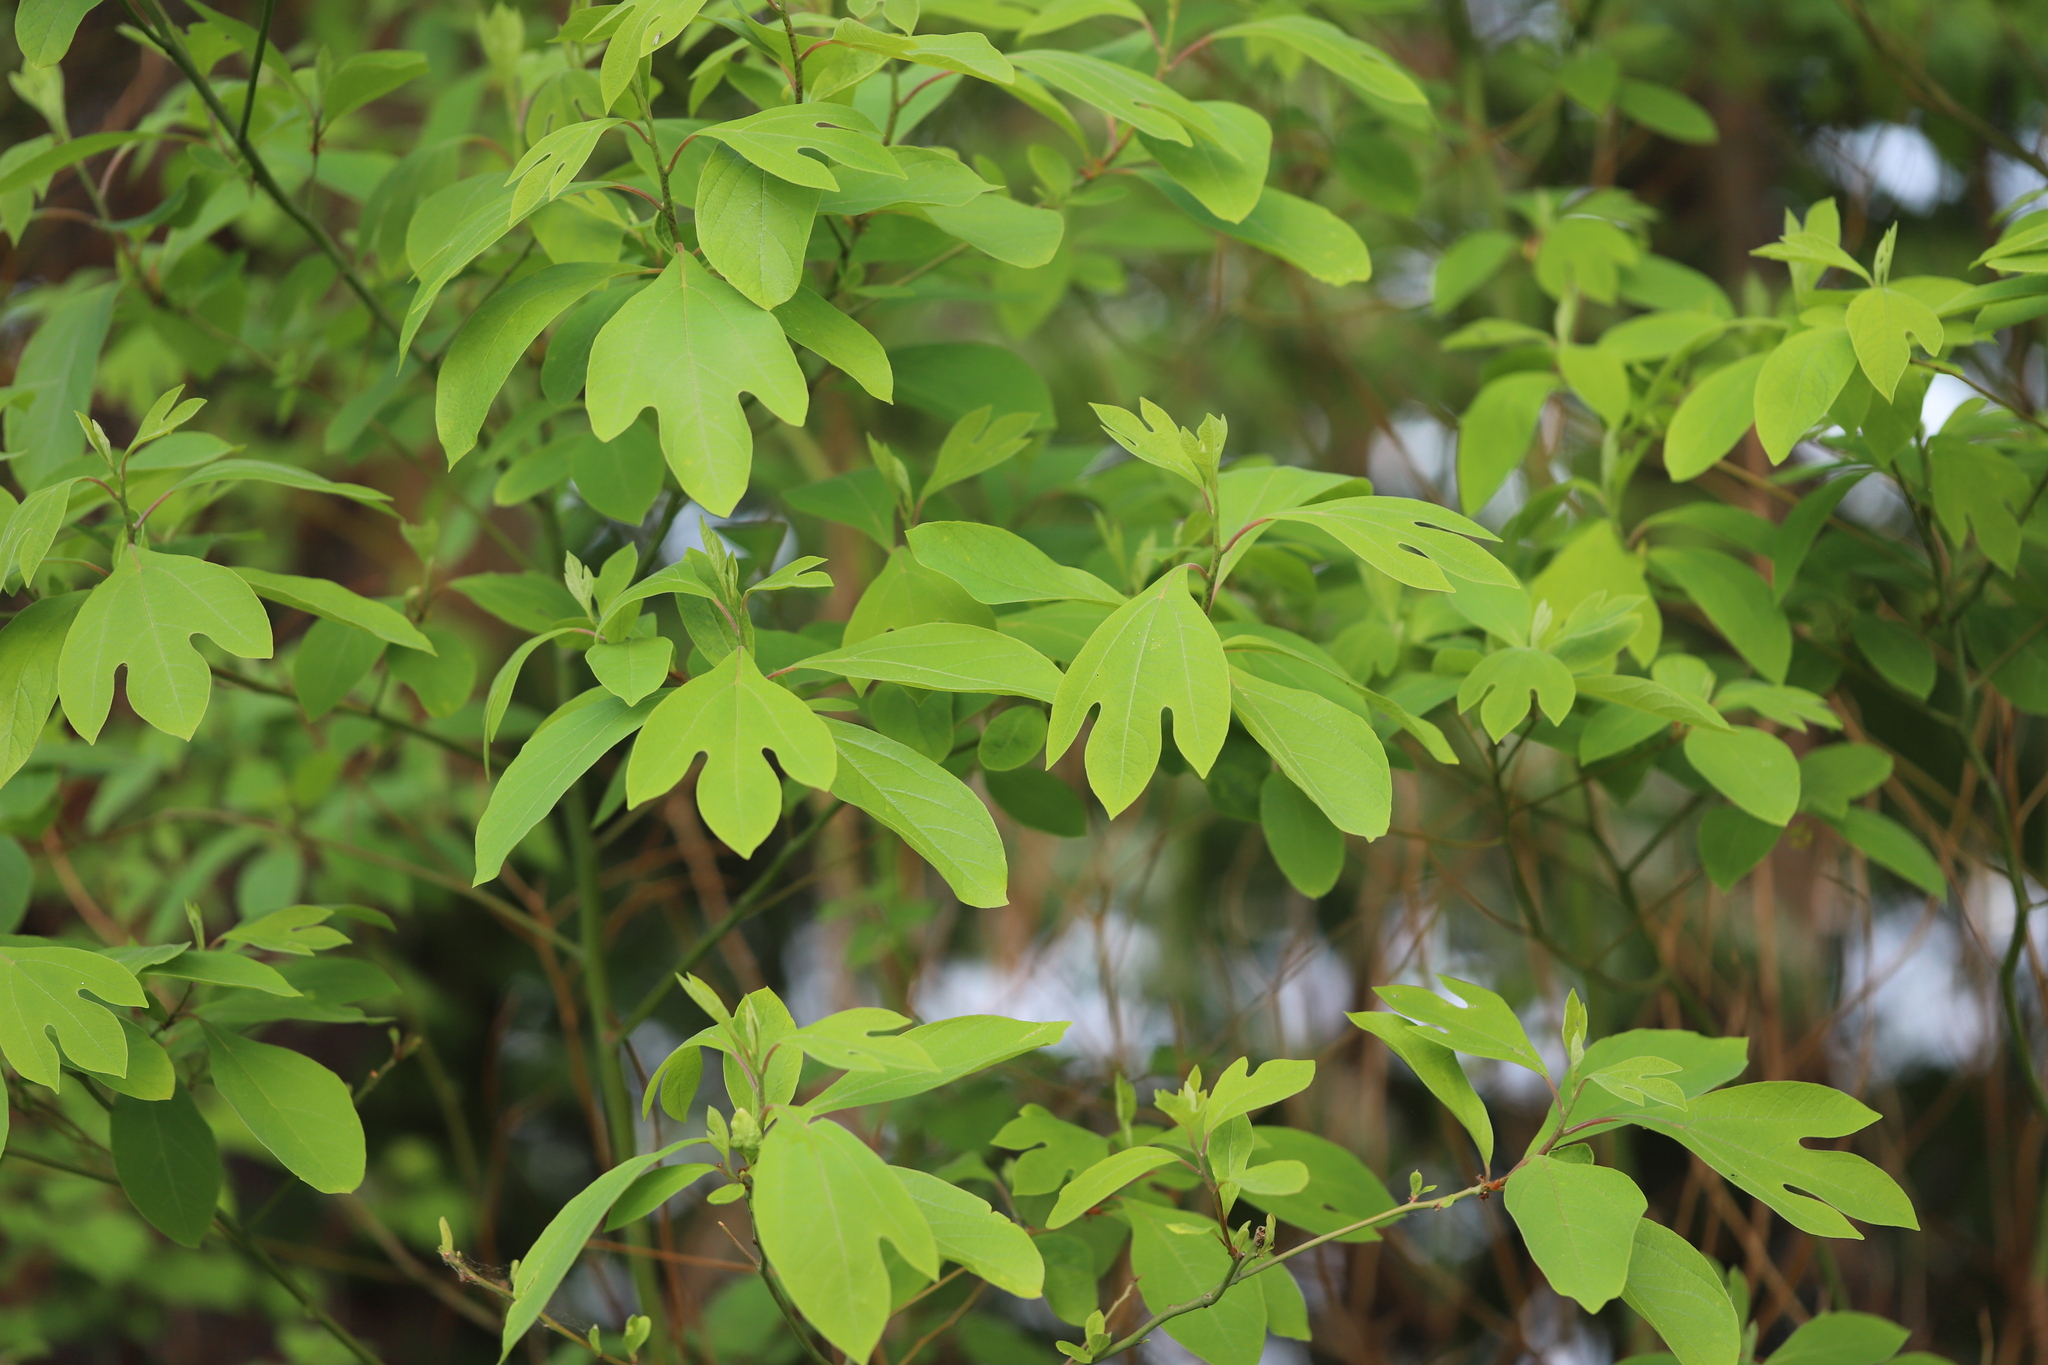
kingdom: Plantae
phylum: Tracheophyta
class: Magnoliopsida
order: Laurales
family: Lauraceae
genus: Sassafras
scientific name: Sassafras albidum
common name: Sassafras
